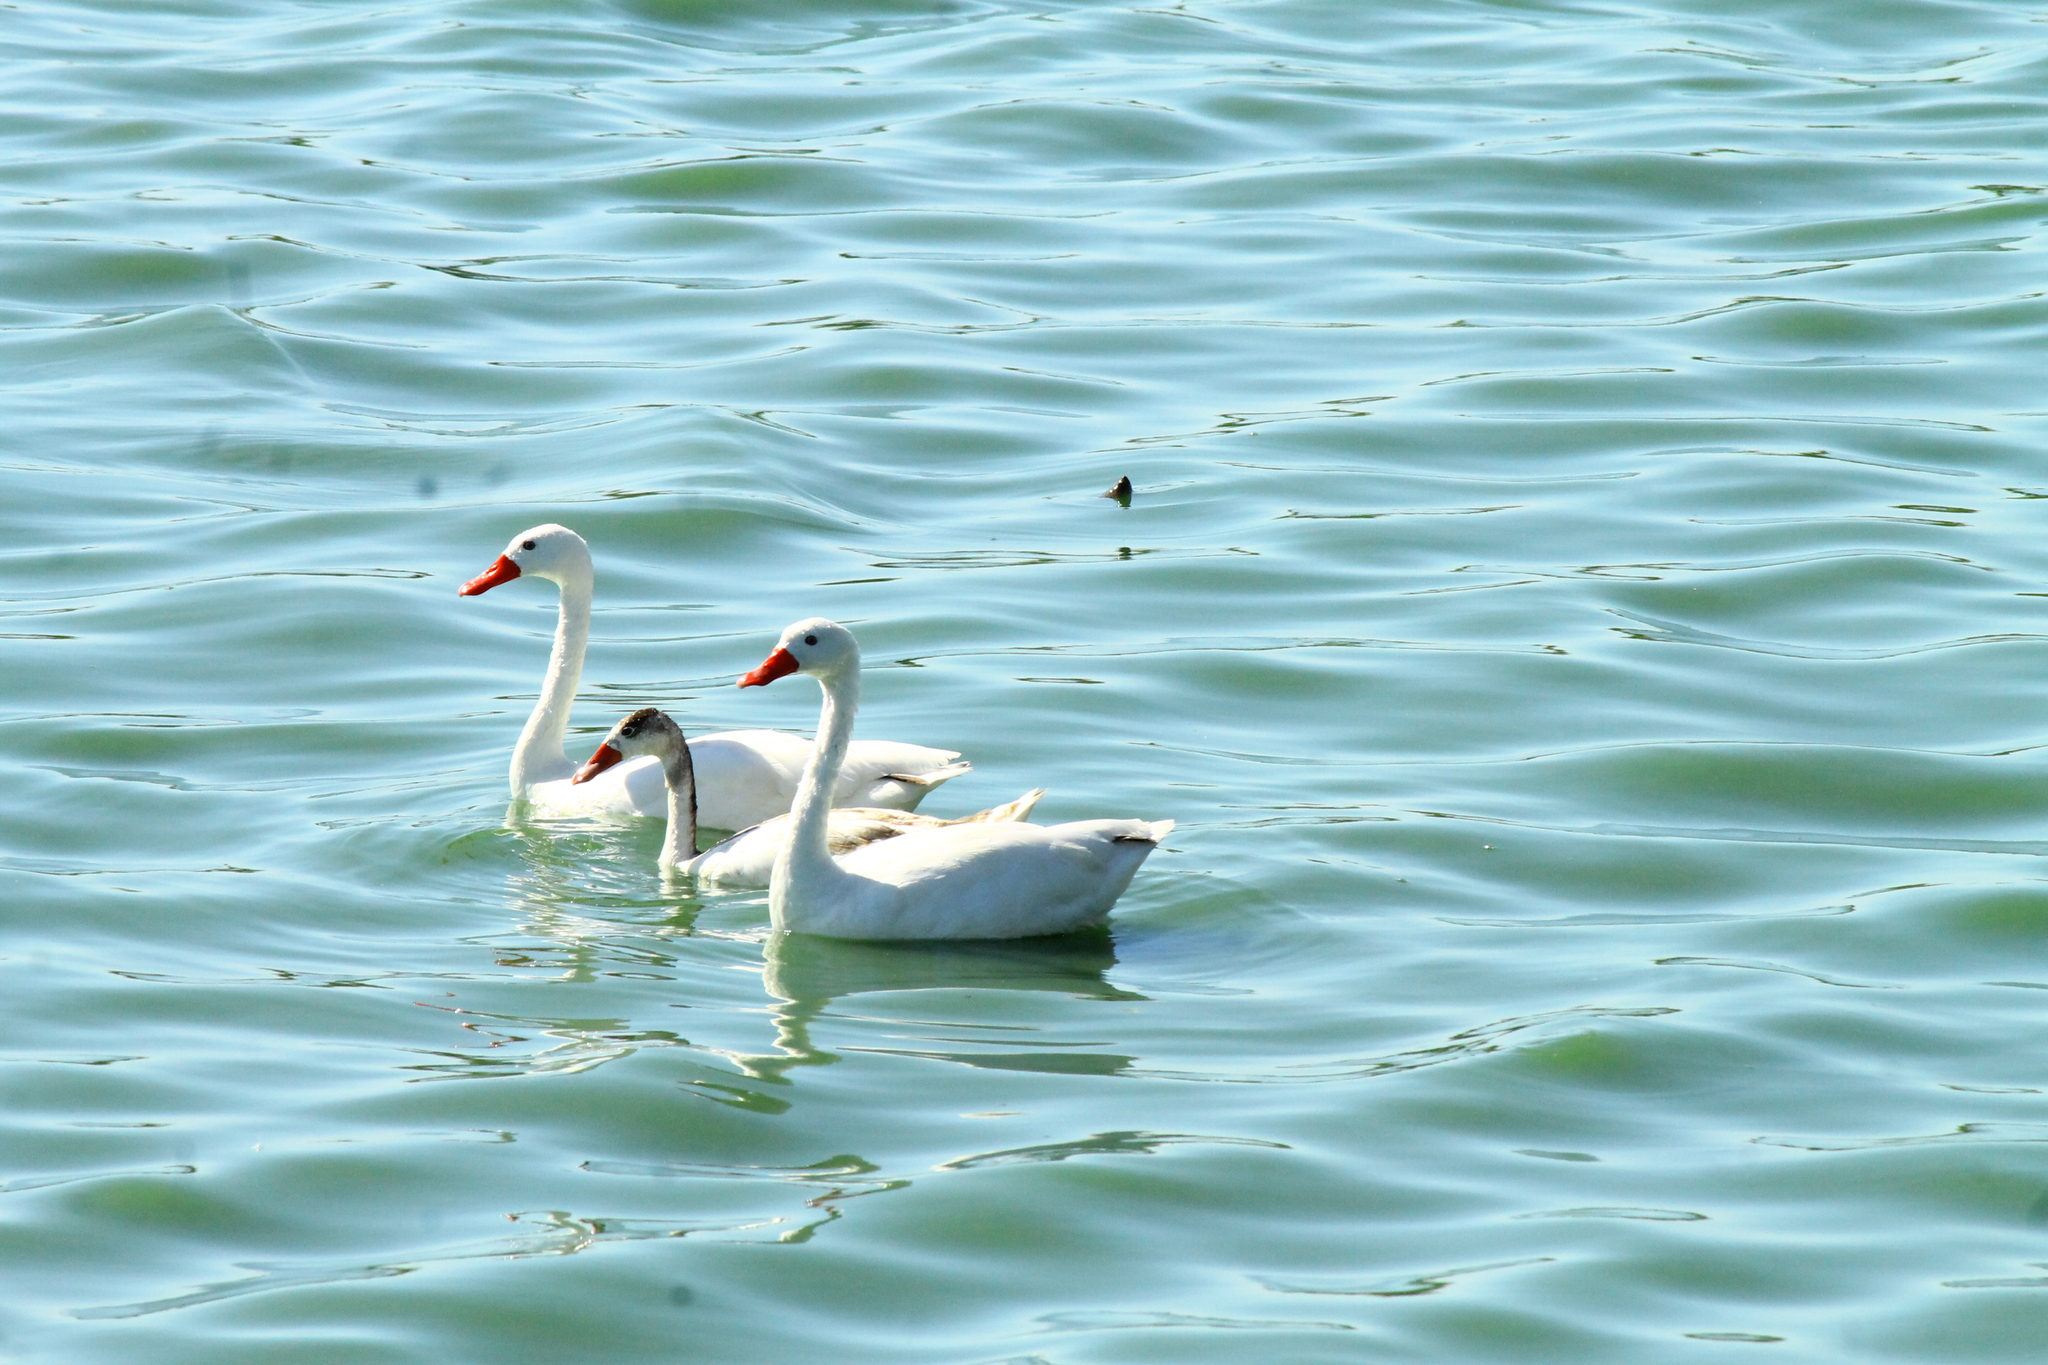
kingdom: Animalia
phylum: Chordata
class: Aves
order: Anseriformes
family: Anatidae
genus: Coscoroba
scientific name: Coscoroba coscoroba
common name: Coscoroba swan
